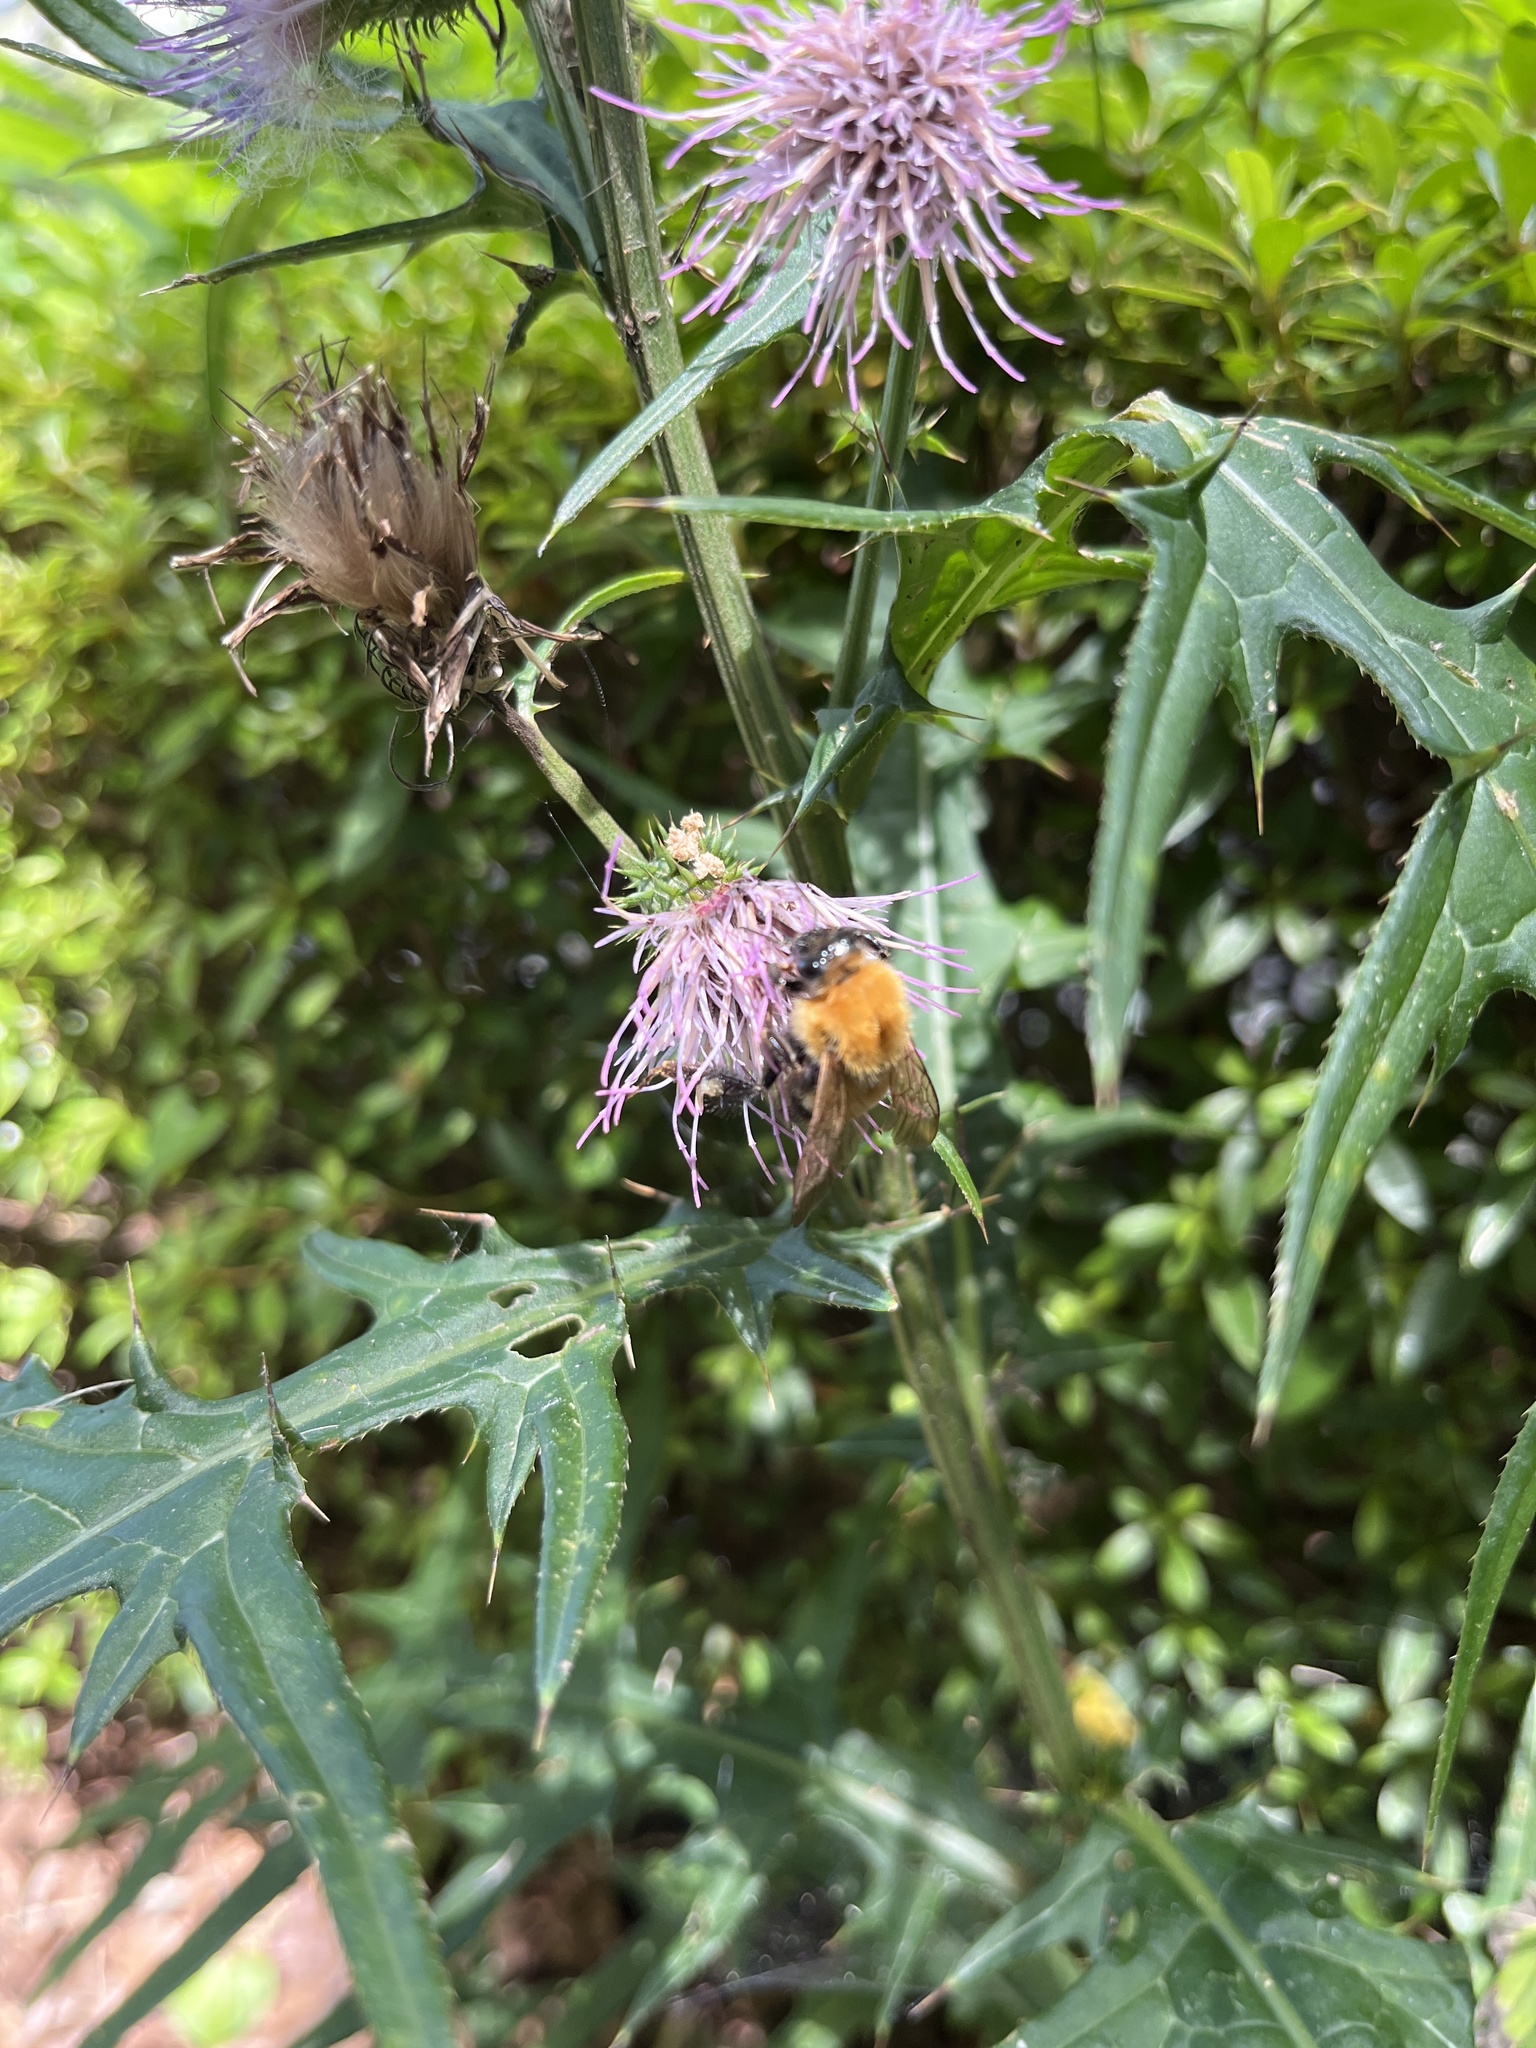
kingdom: Animalia
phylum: Arthropoda
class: Insecta
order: Hymenoptera
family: Apidae
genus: Bombus
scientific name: Bombus diversus
